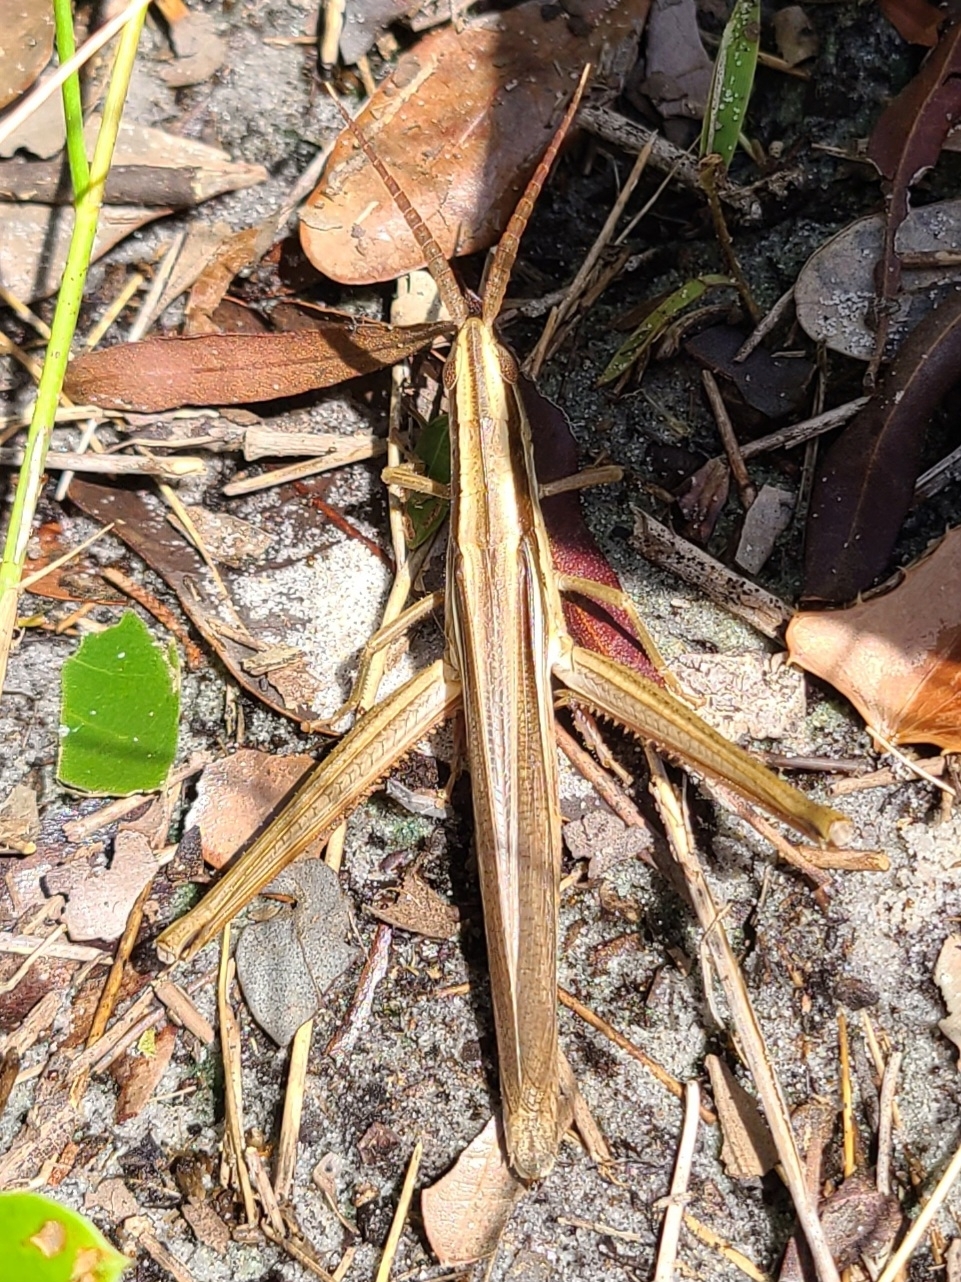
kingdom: Animalia
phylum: Arthropoda
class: Insecta
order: Orthoptera
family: Acrididae
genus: Mermiria
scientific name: Mermiria intertexta
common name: Eastern mermiria grasshopper
